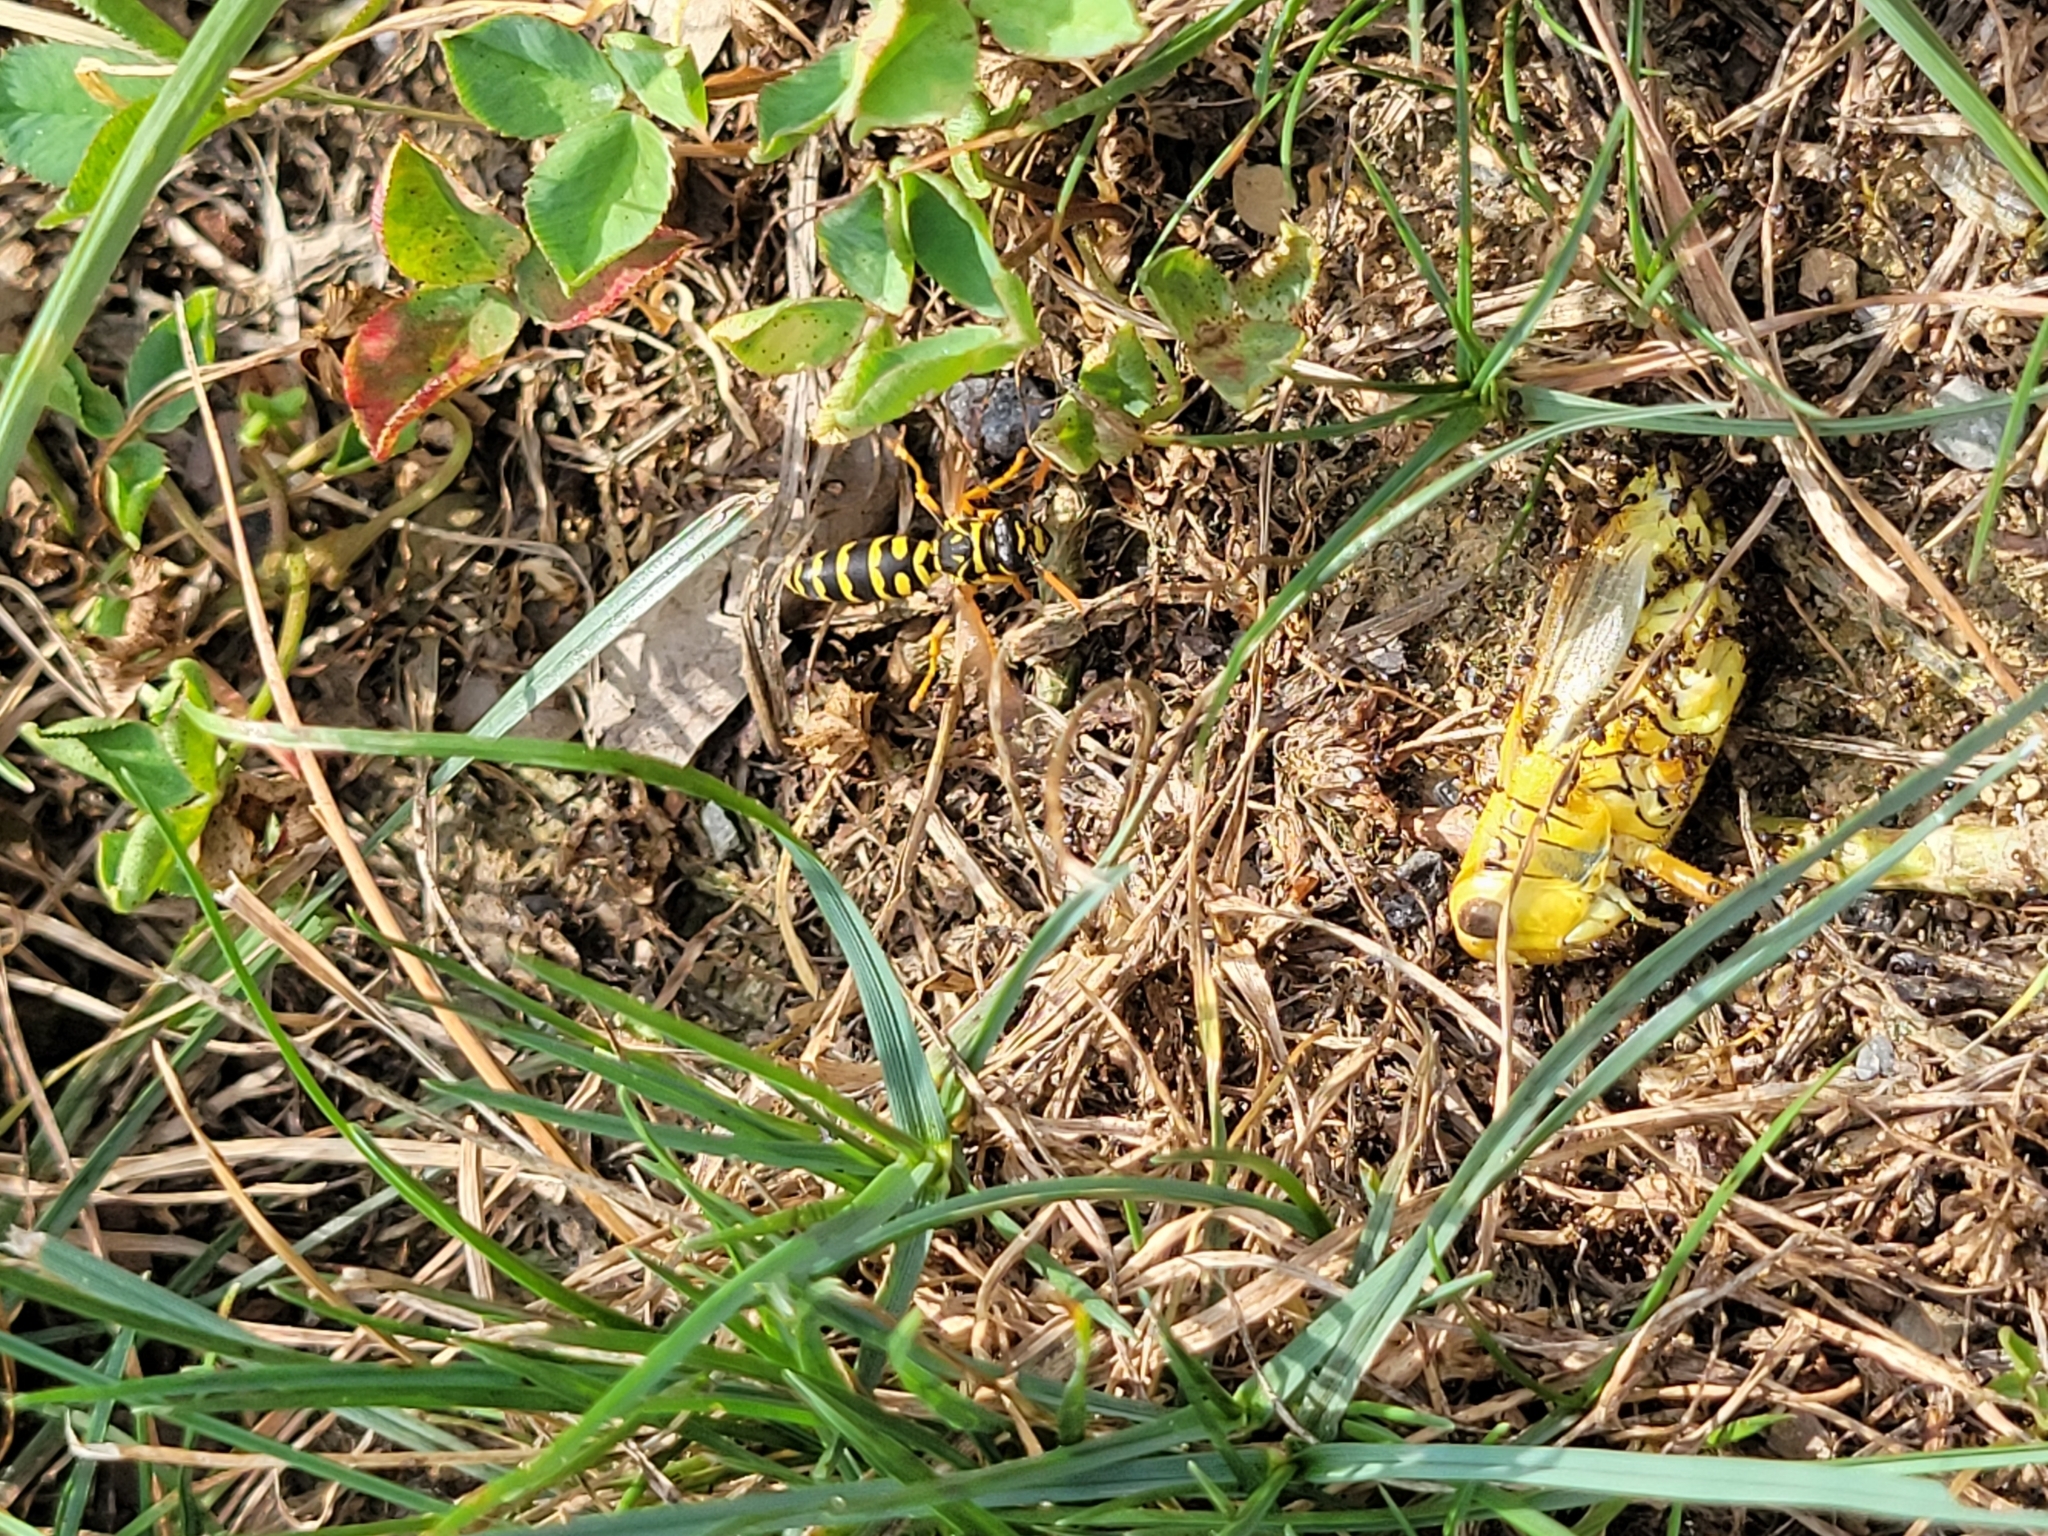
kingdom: Animalia
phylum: Arthropoda
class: Insecta
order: Hymenoptera
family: Eumenidae
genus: Polistes
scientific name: Polistes dominula
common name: Paper wasp
